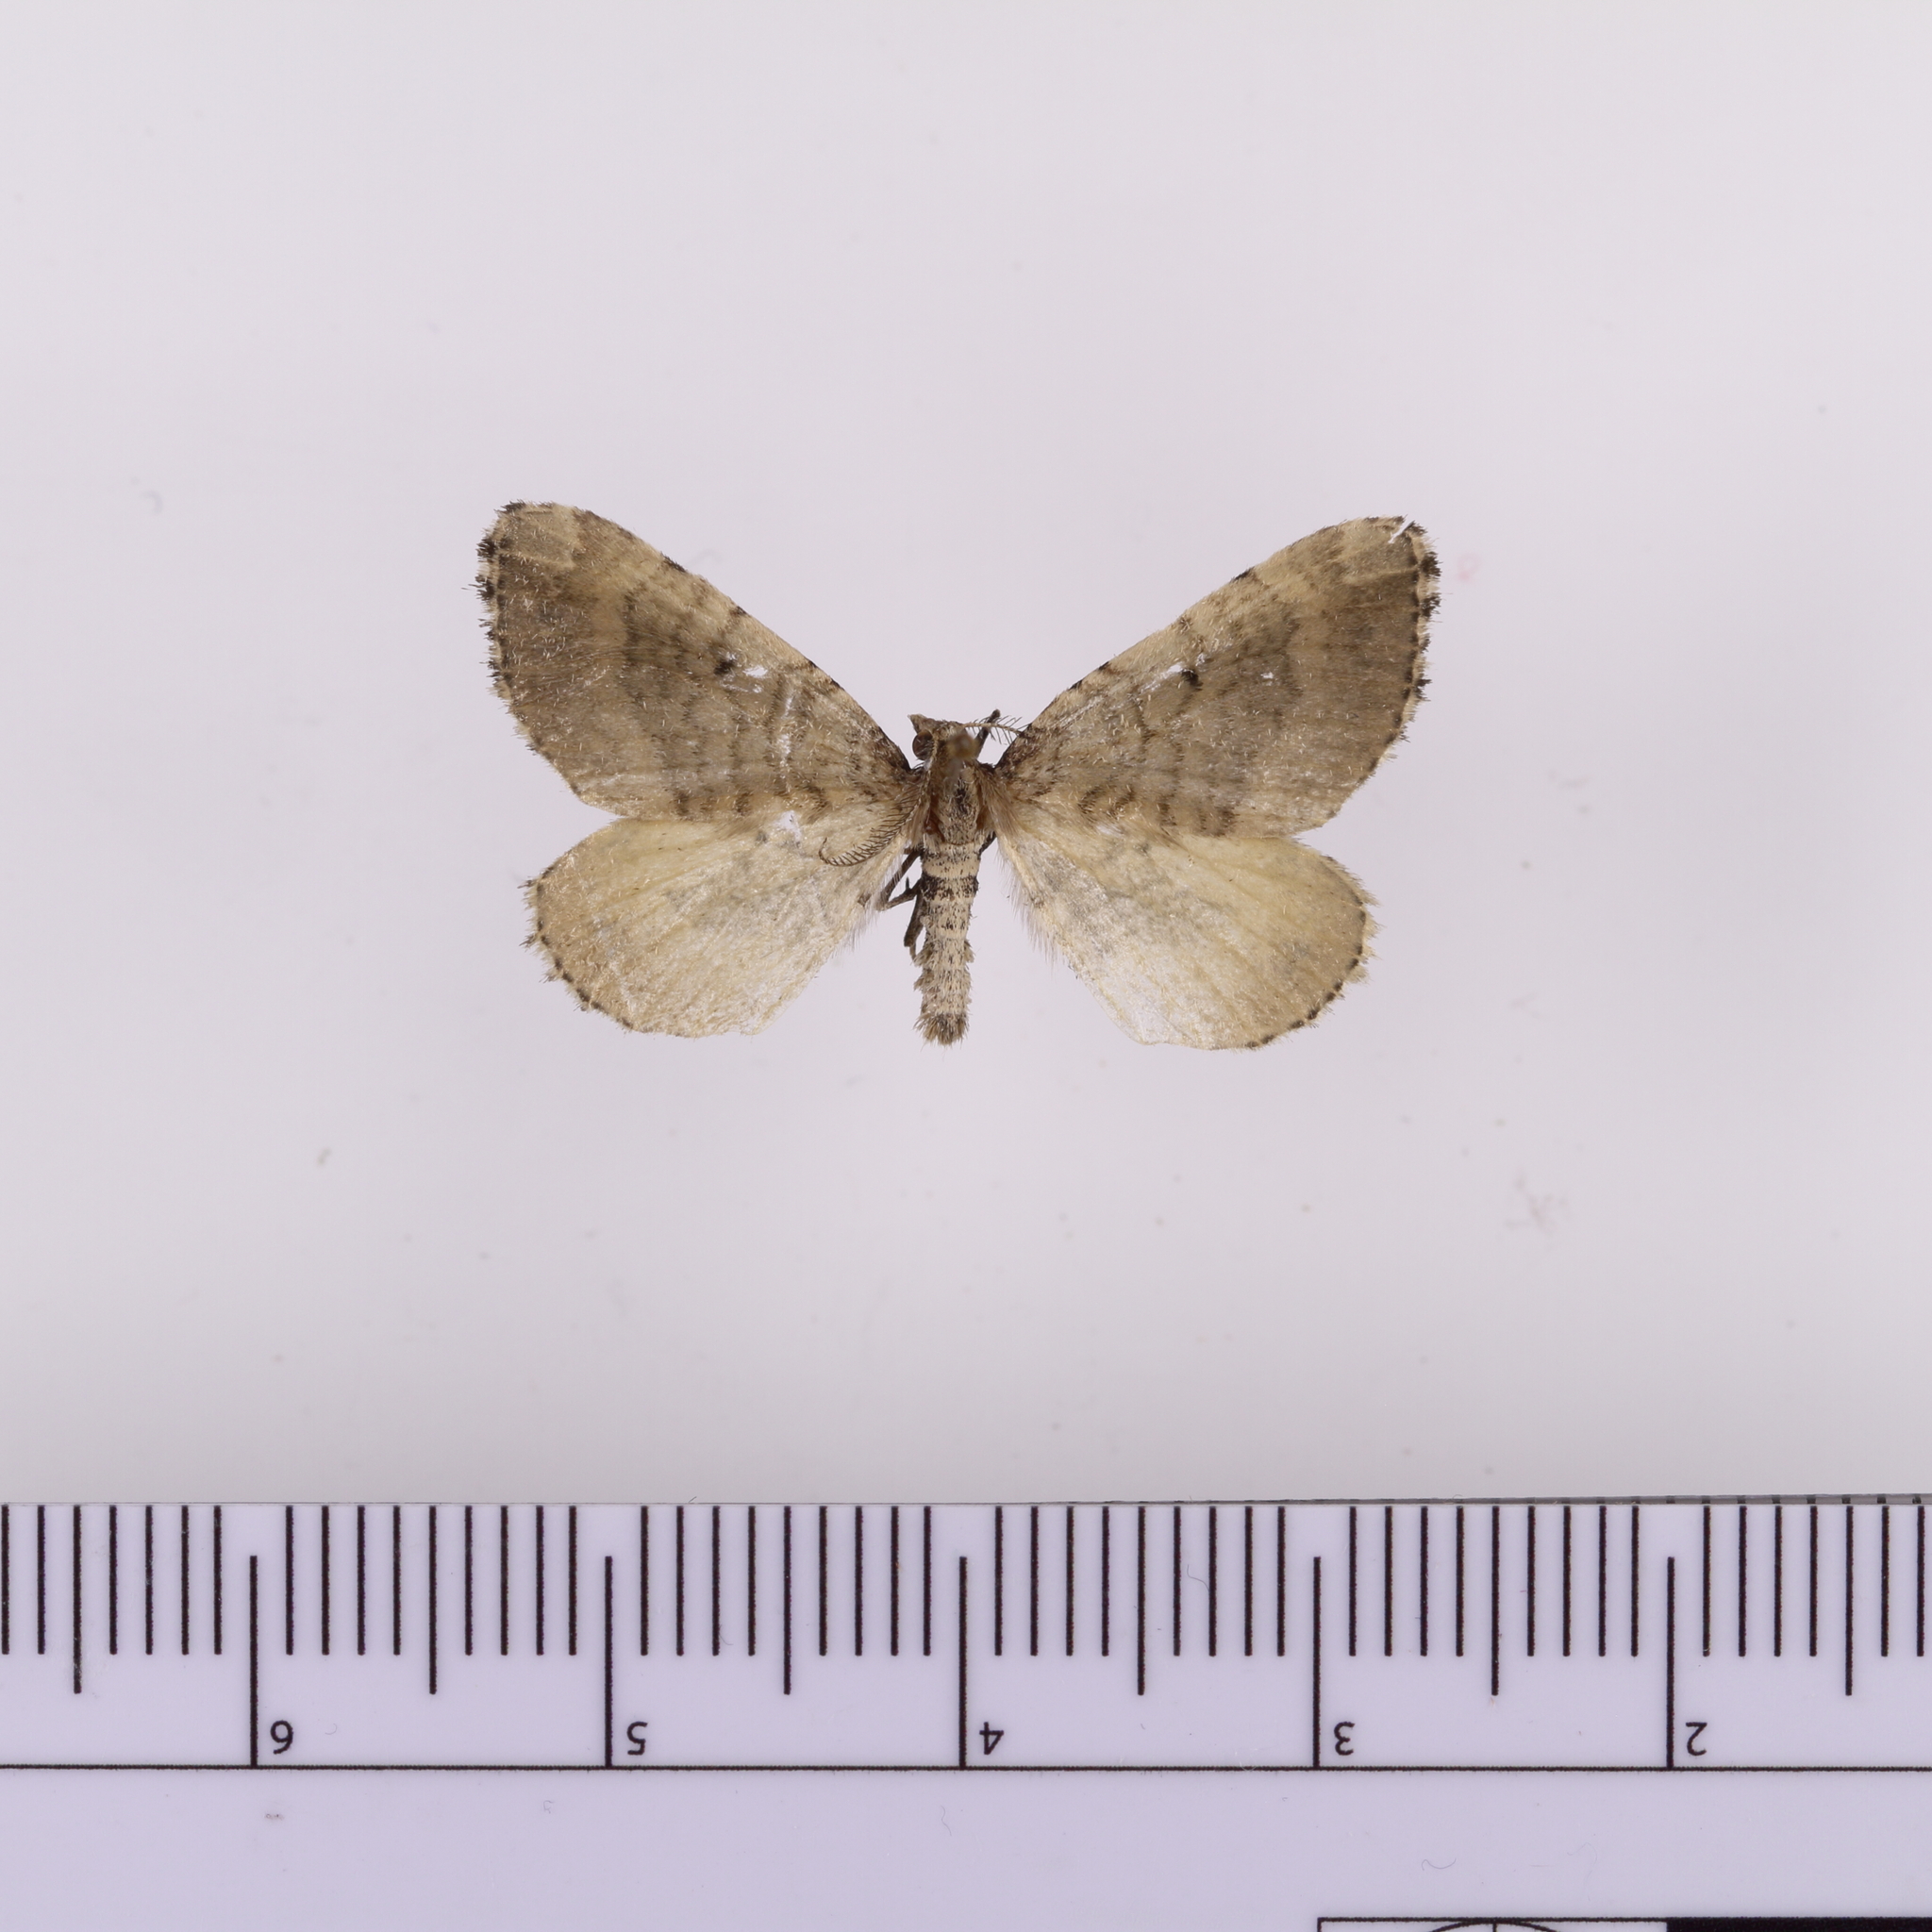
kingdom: Animalia
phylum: Arthropoda
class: Insecta
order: Lepidoptera
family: Geometridae
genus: Asaphodes
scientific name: Asaphodes aegrota
